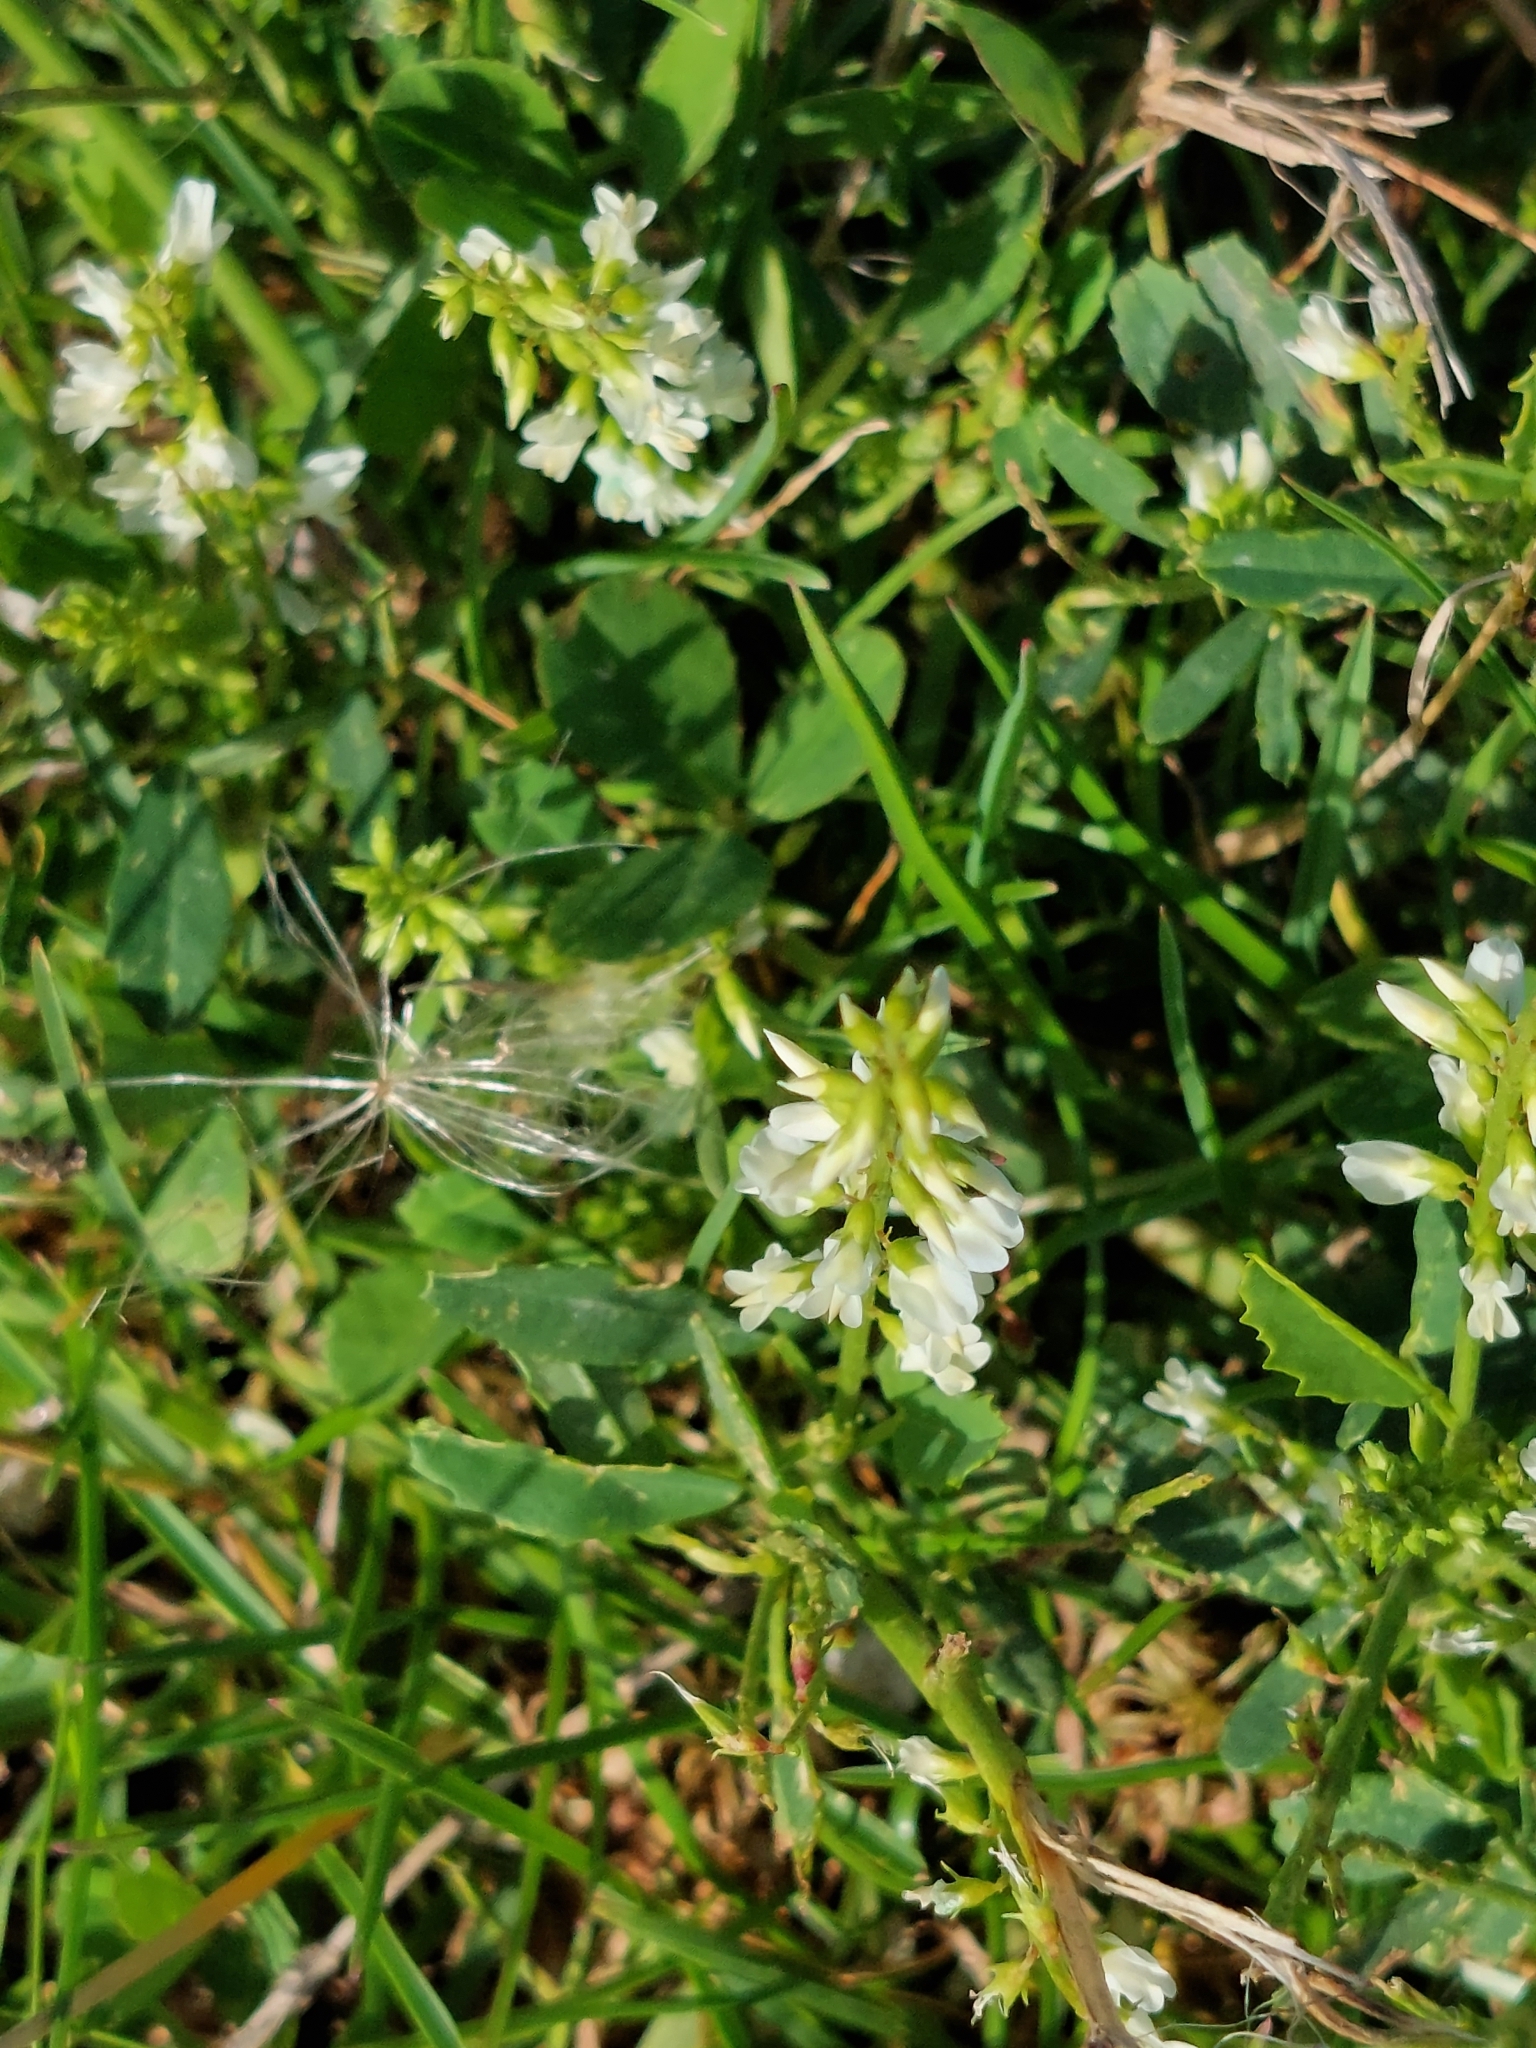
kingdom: Plantae
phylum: Tracheophyta
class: Magnoliopsida
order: Fabales
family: Fabaceae
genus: Melilotus
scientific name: Melilotus albus
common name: White melilot
